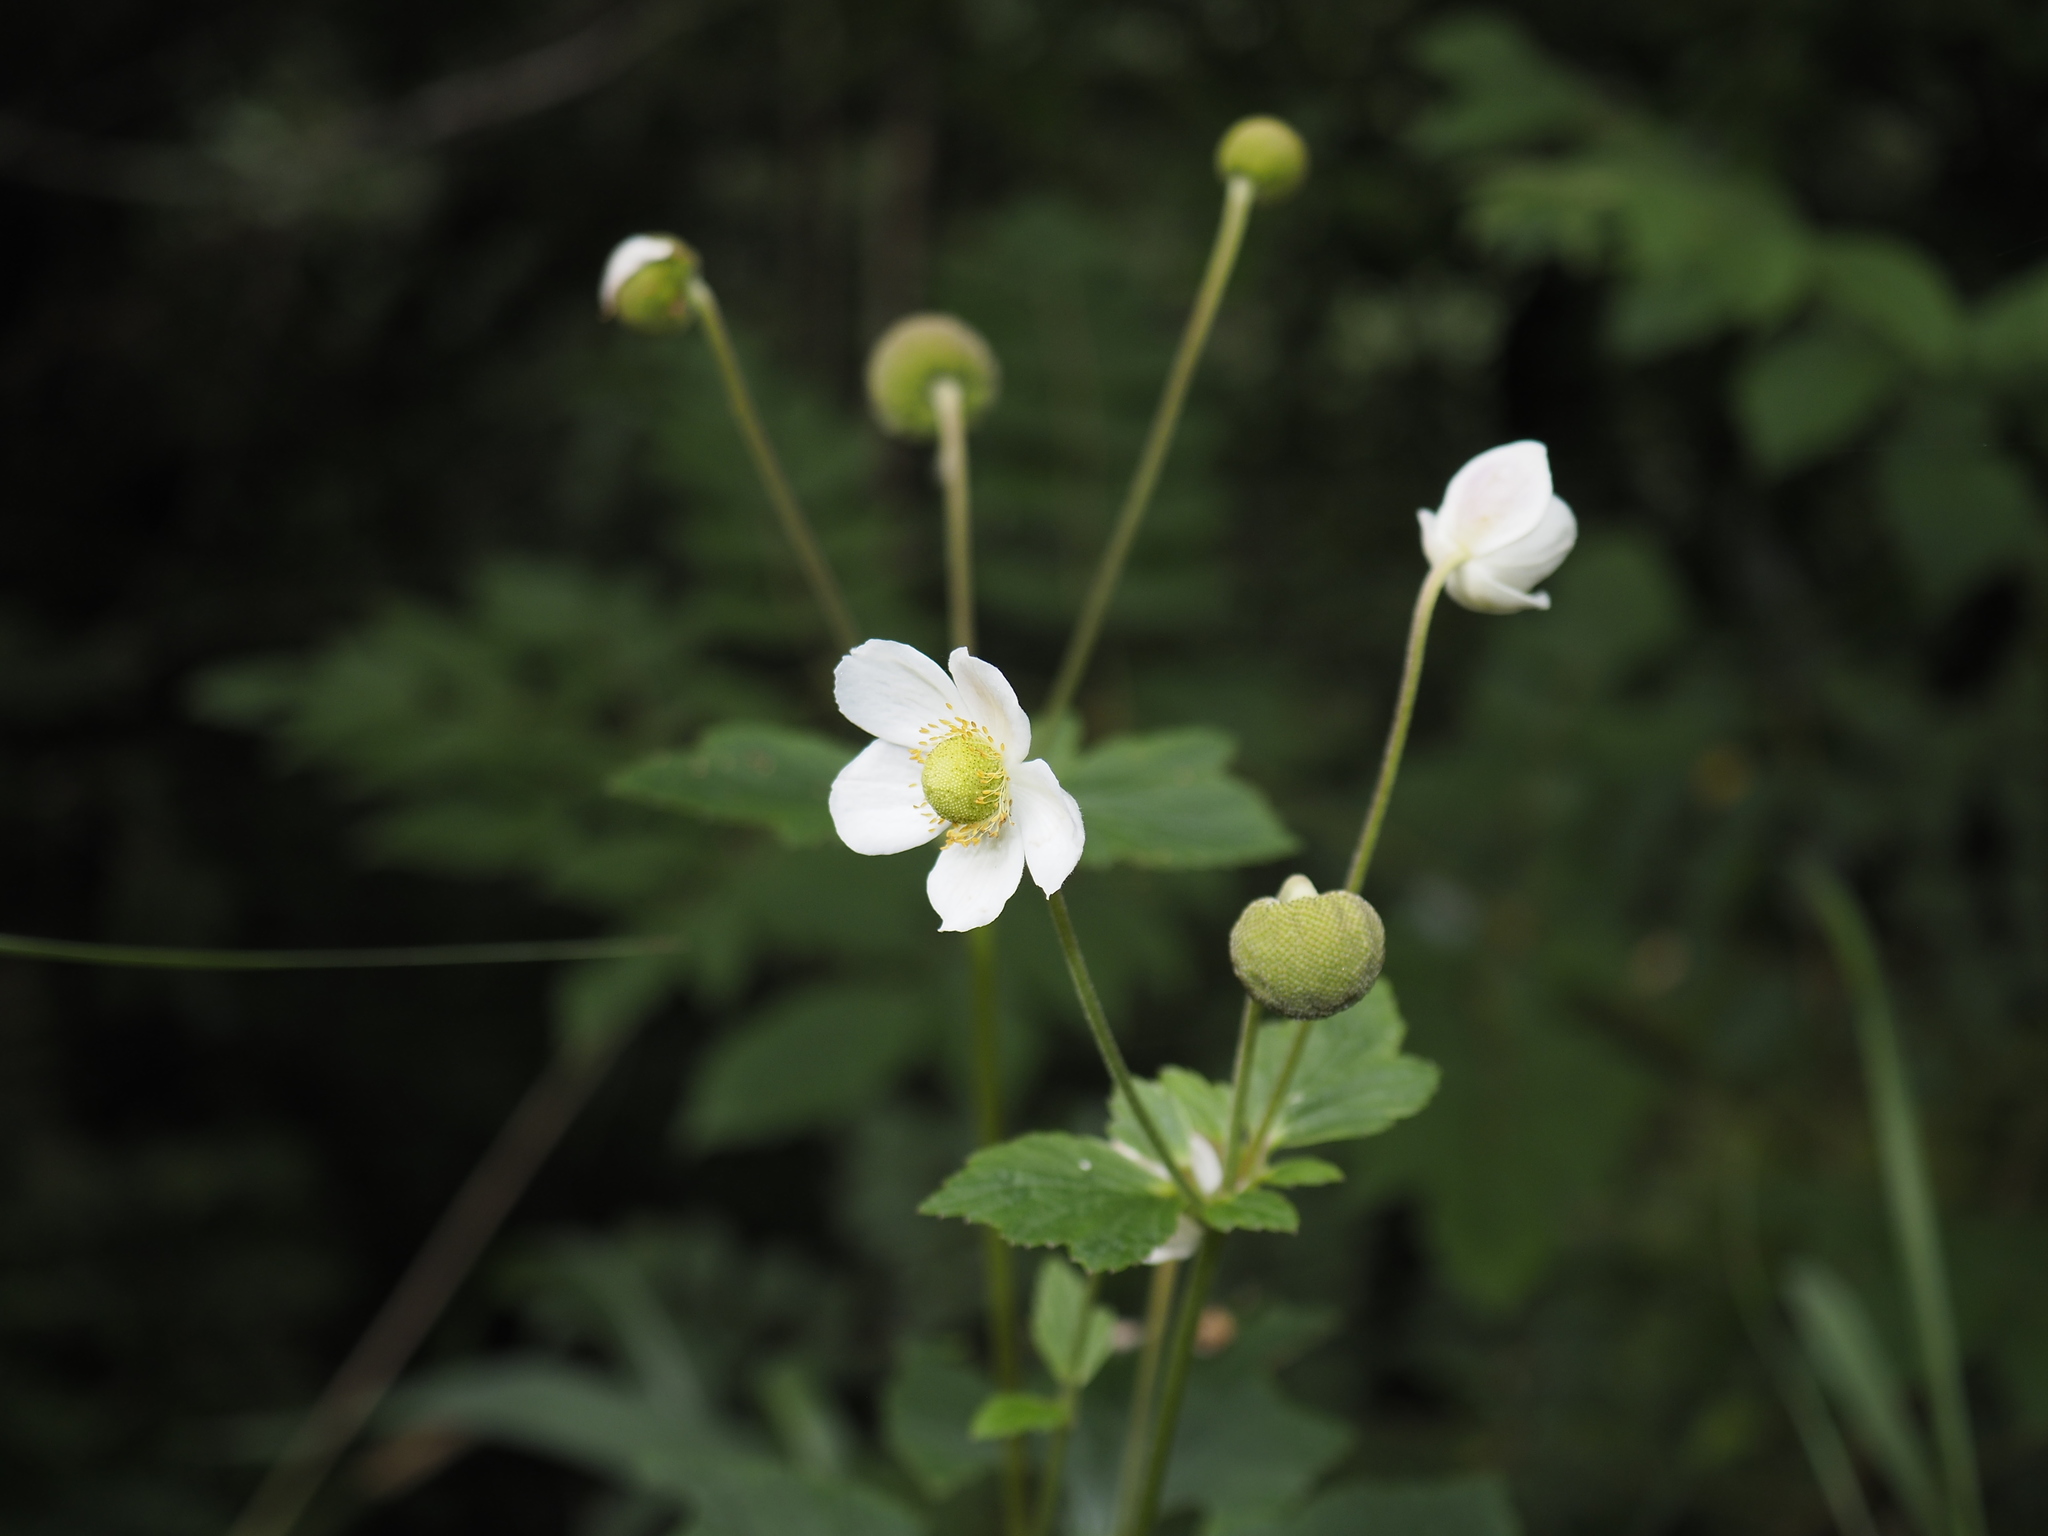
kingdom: Plantae
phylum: Tracheophyta
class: Magnoliopsida
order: Ranunculales
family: Ranunculaceae
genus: Eriocapitella
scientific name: Eriocapitella vitifolia
